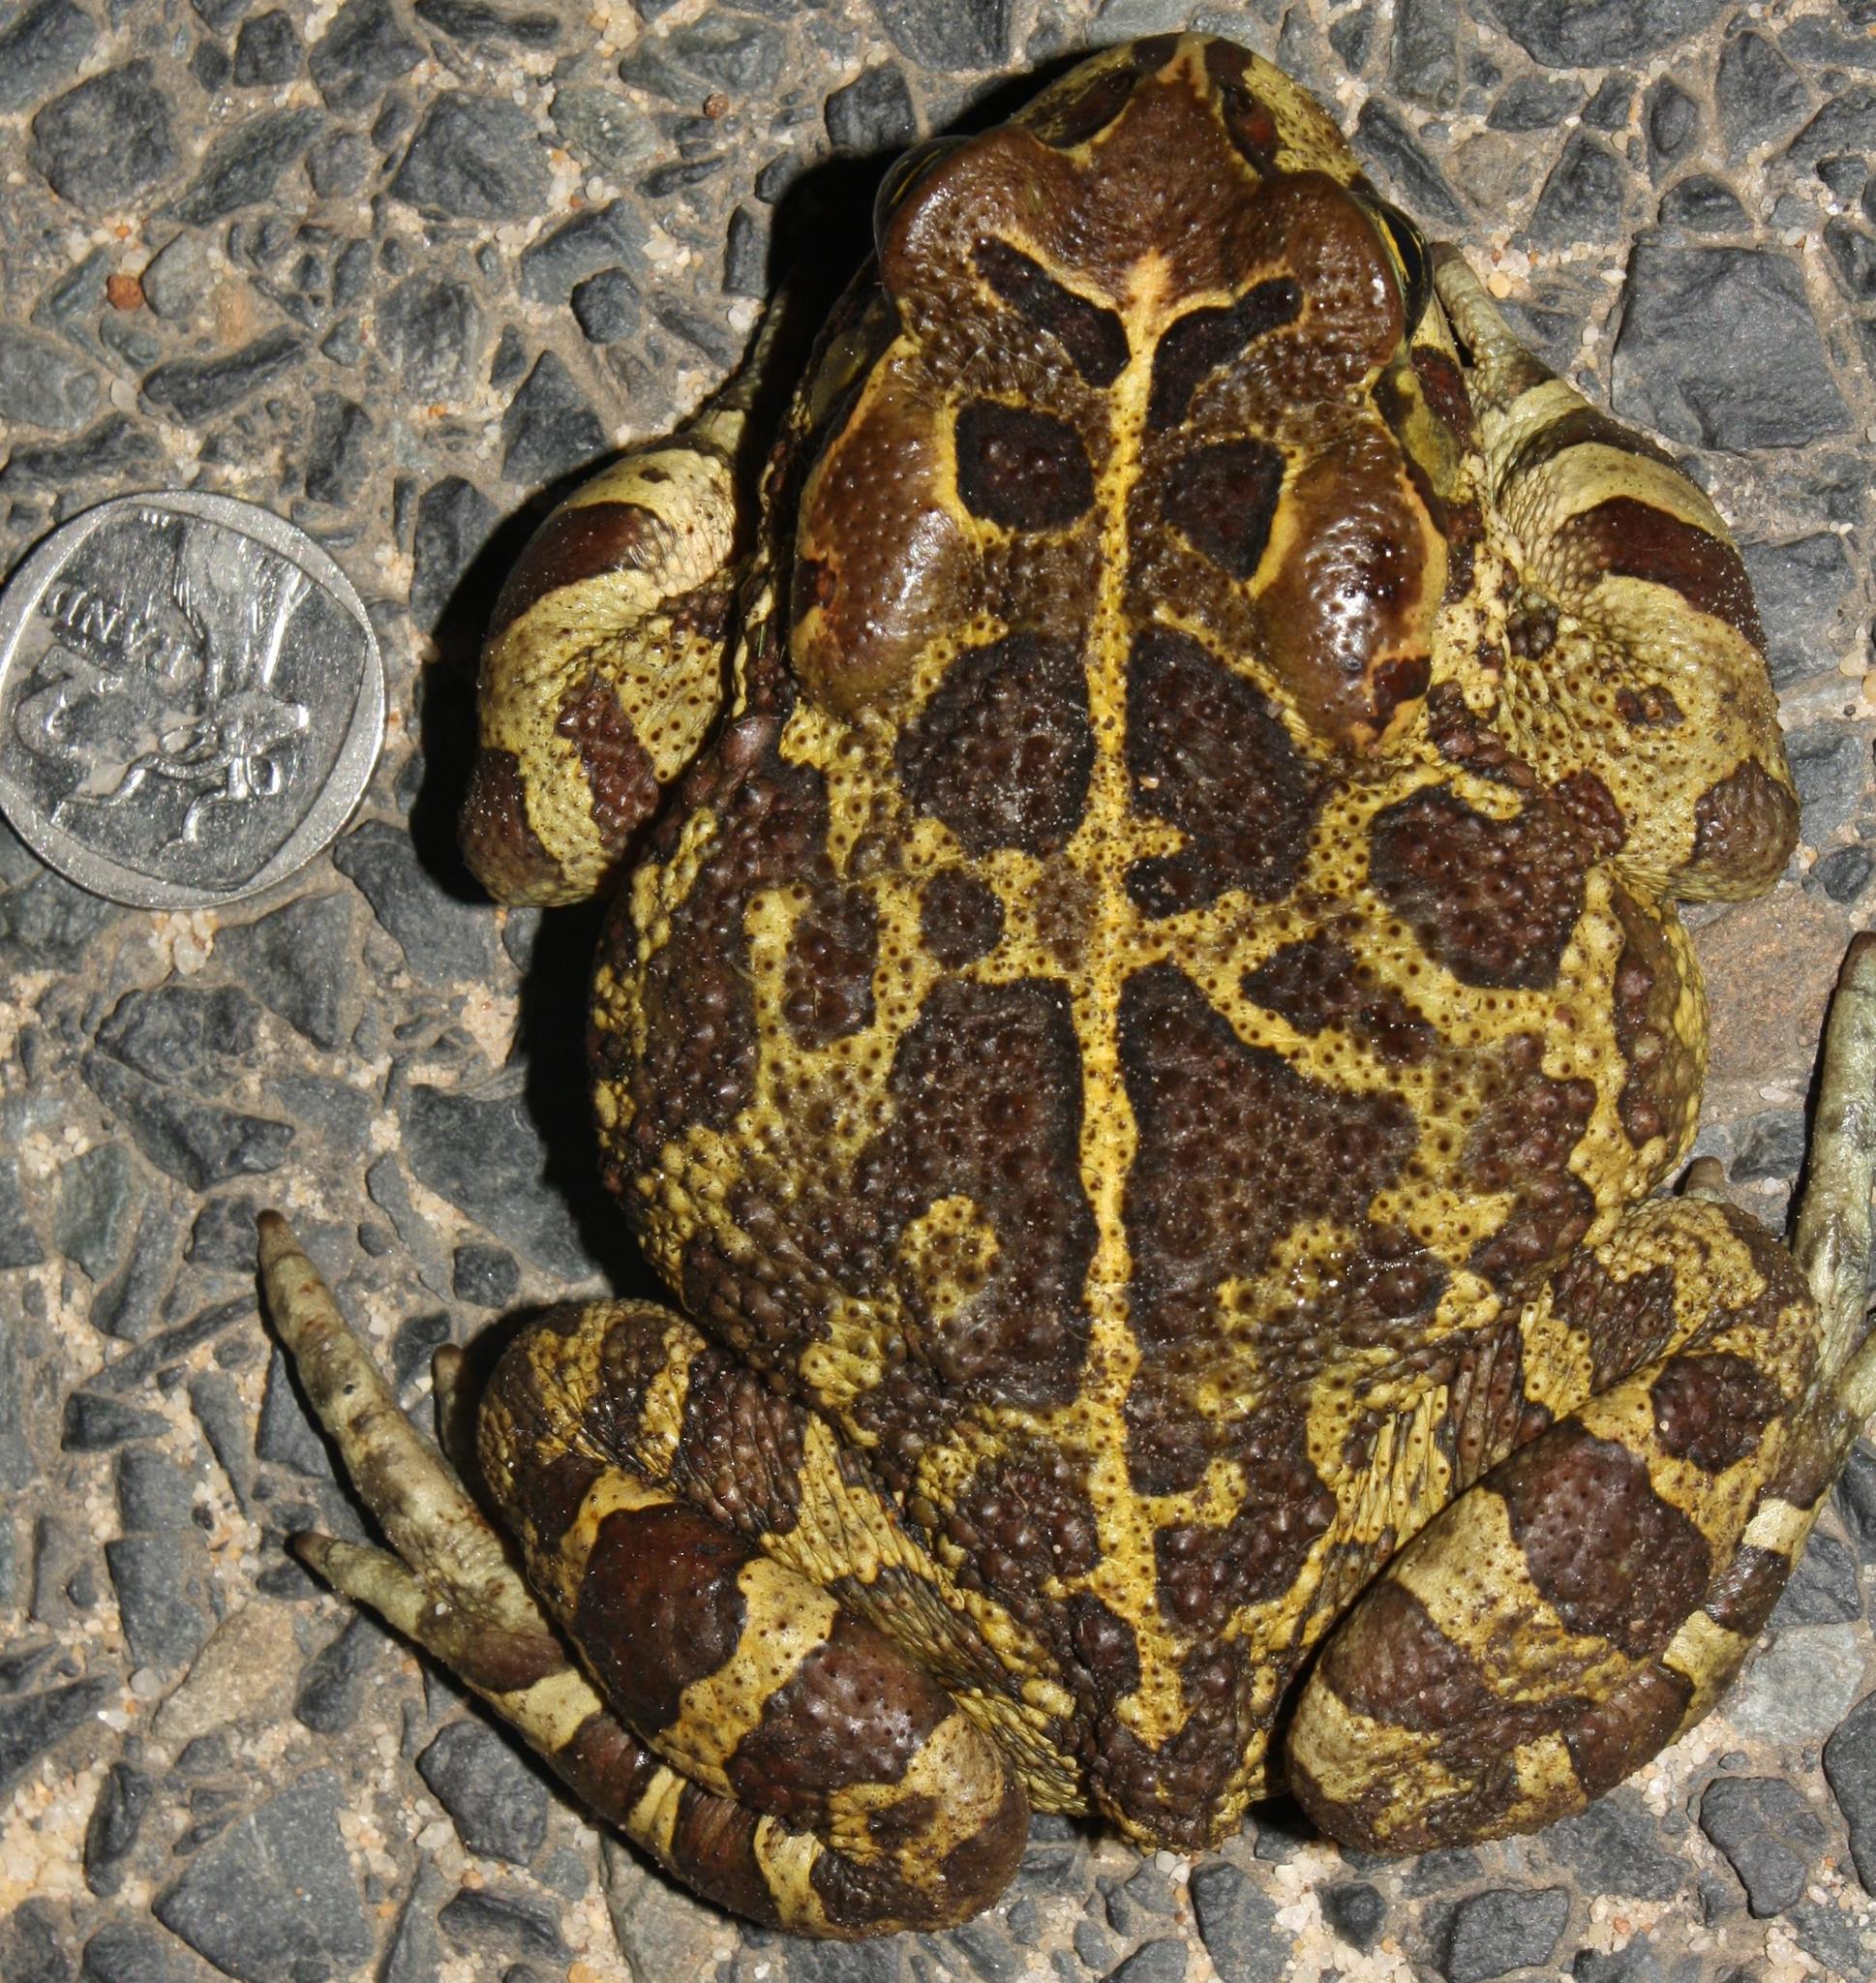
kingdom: Animalia
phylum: Chordata
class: Amphibia
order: Anura
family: Bufonidae
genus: Sclerophrys
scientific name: Sclerophrys pantherina
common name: Panther toad
